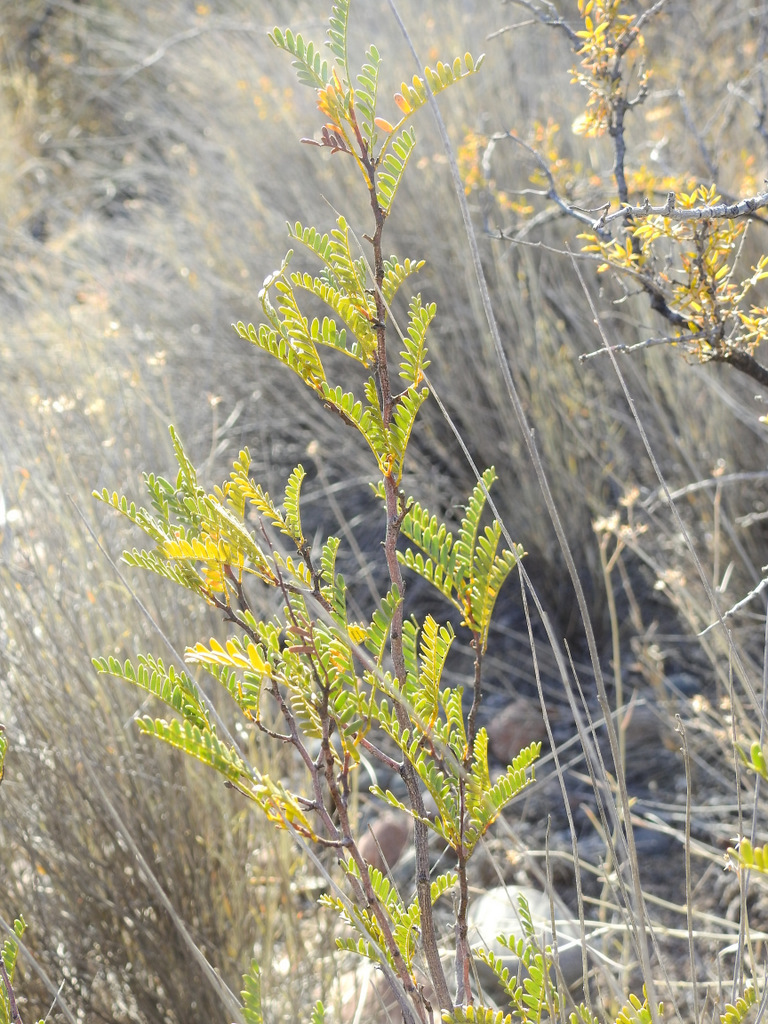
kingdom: Plantae
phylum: Tracheophyta
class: Magnoliopsida
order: Fabales
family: Fabaceae
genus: Zuccagnia
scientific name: Zuccagnia punctata
